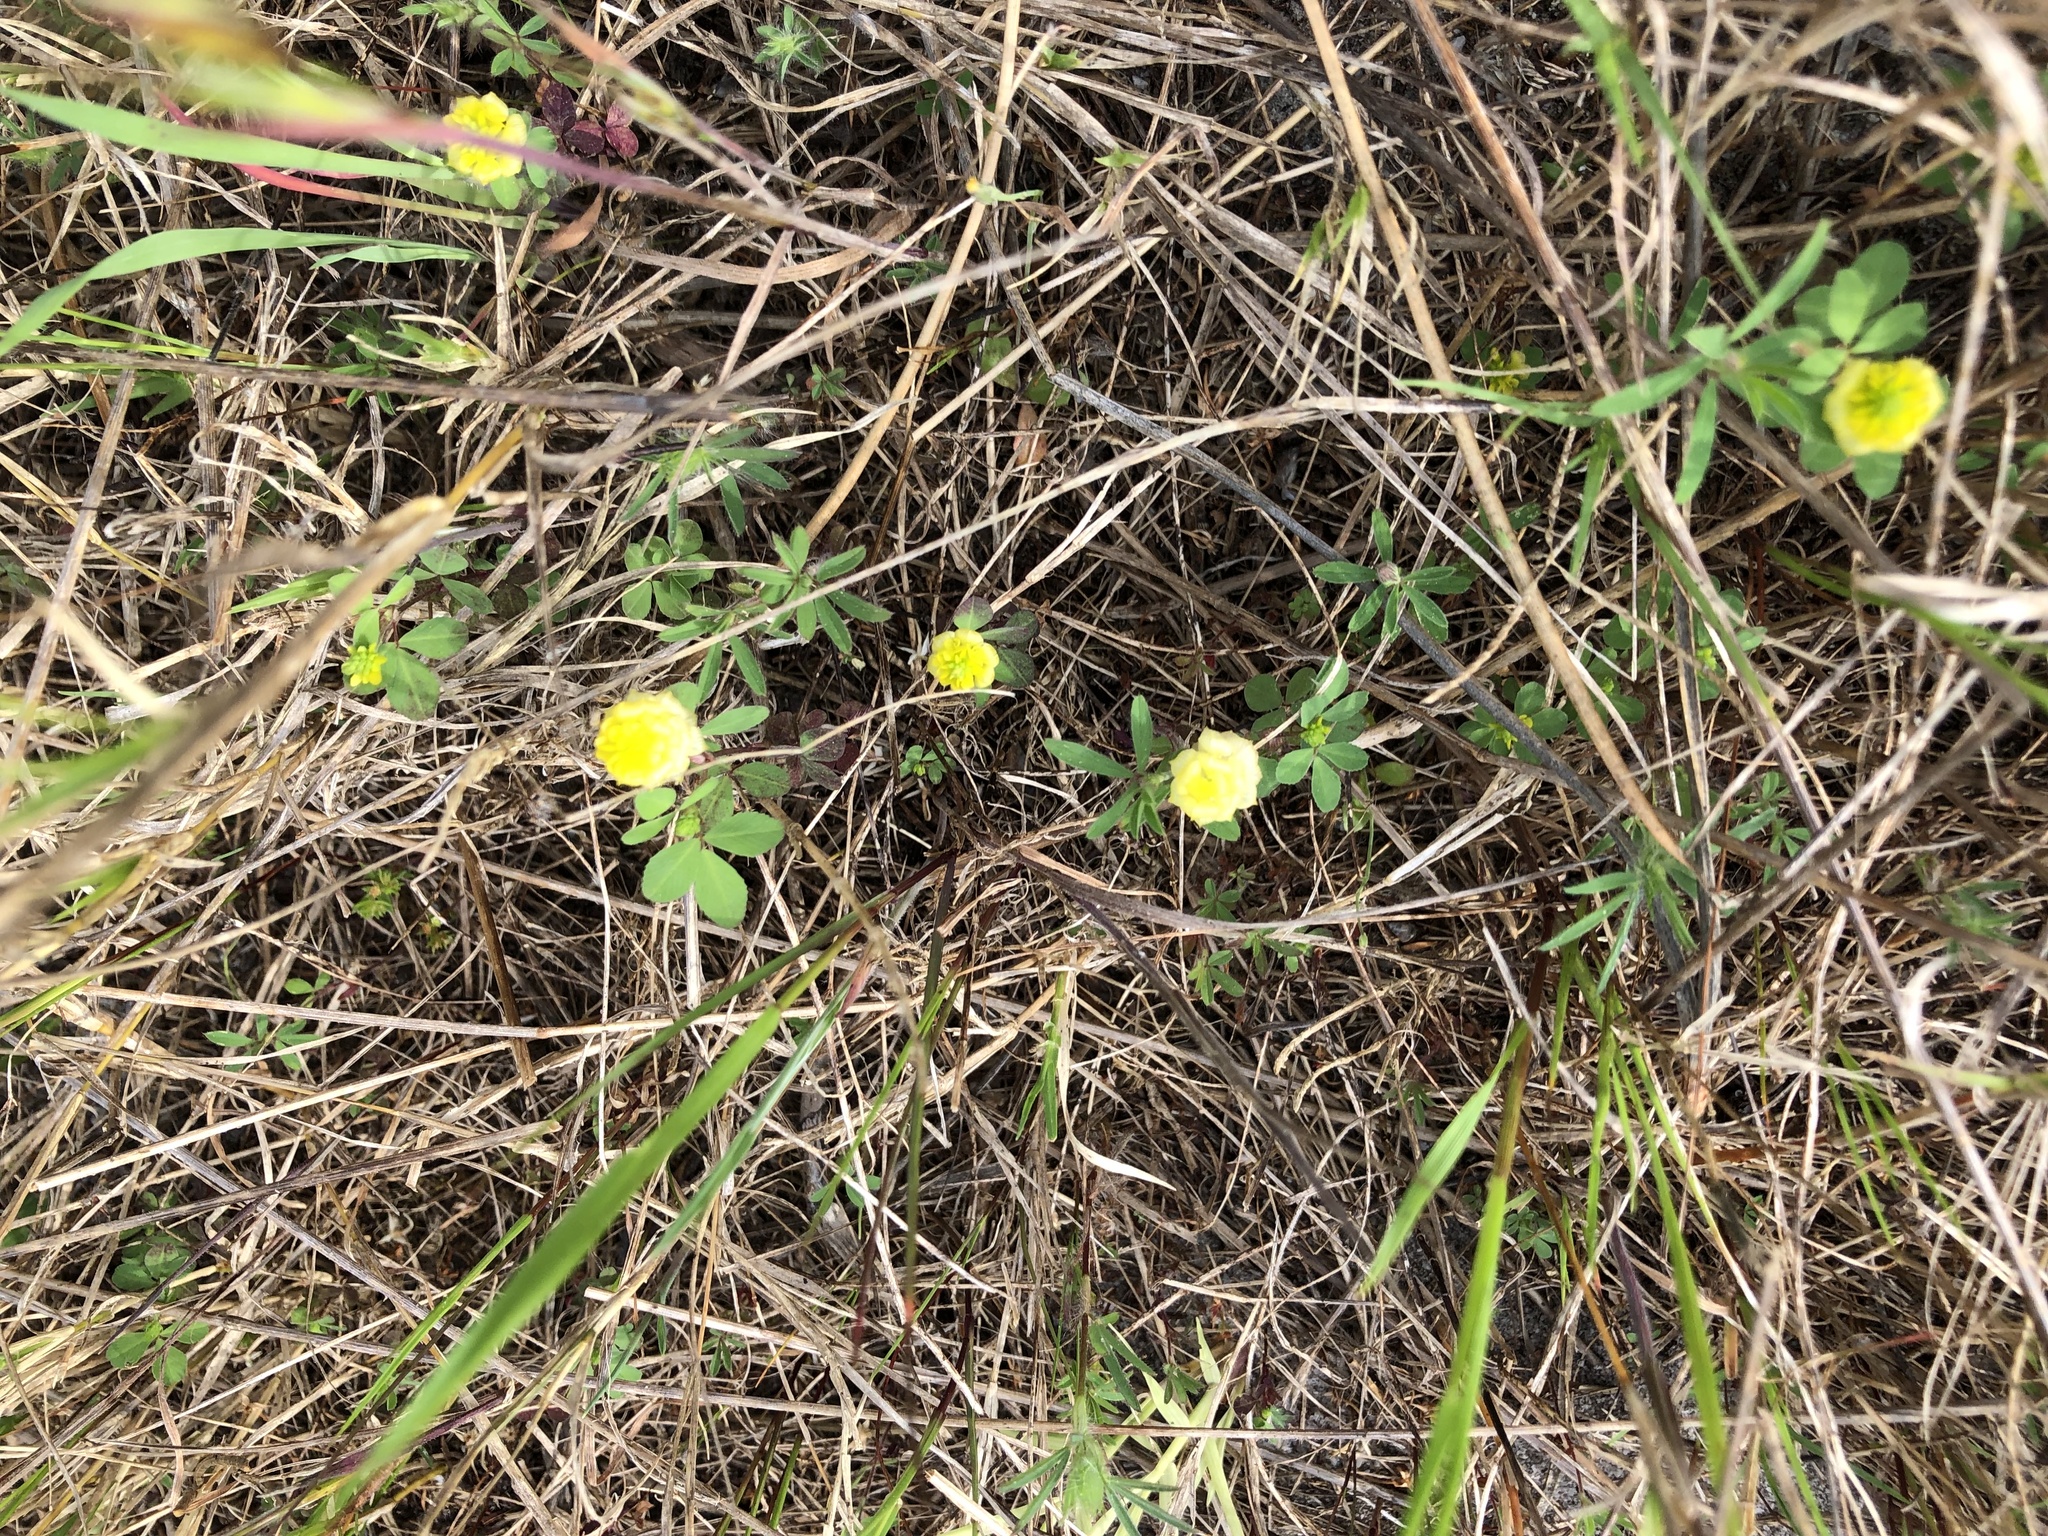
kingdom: Plantae
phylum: Tracheophyta
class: Magnoliopsida
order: Fabales
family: Fabaceae
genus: Trifolium
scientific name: Trifolium campestre
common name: Field clover
